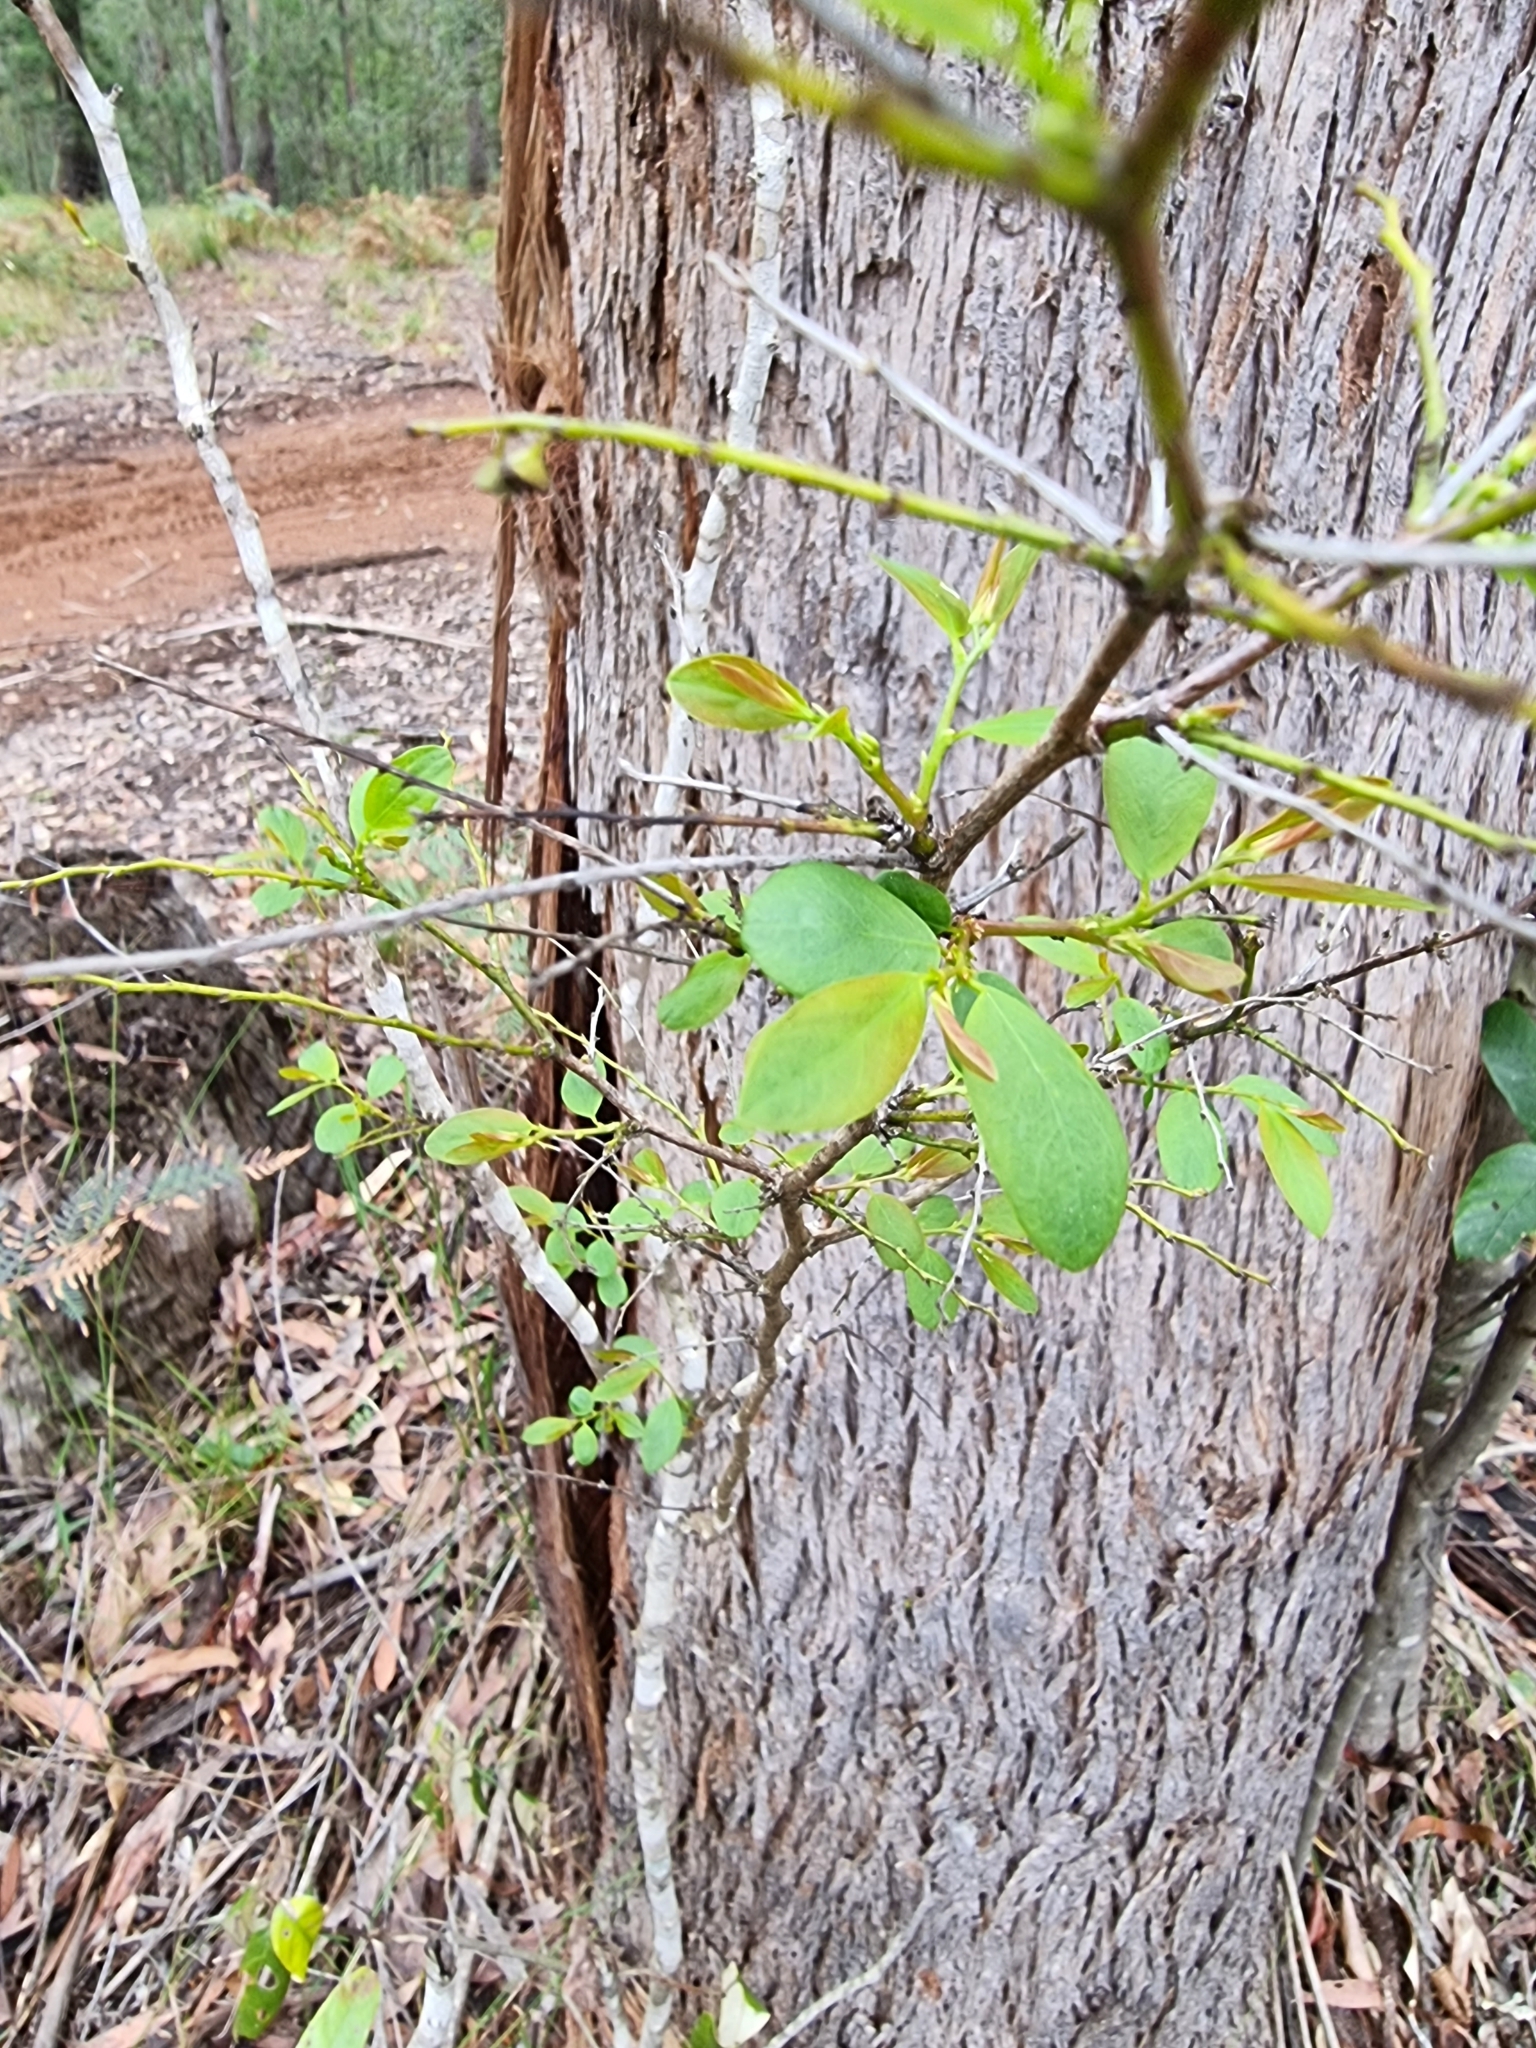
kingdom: Plantae
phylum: Tracheophyta
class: Magnoliopsida
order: Malpighiales
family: Phyllanthaceae
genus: Breynia
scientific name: Breynia oblongifolia
